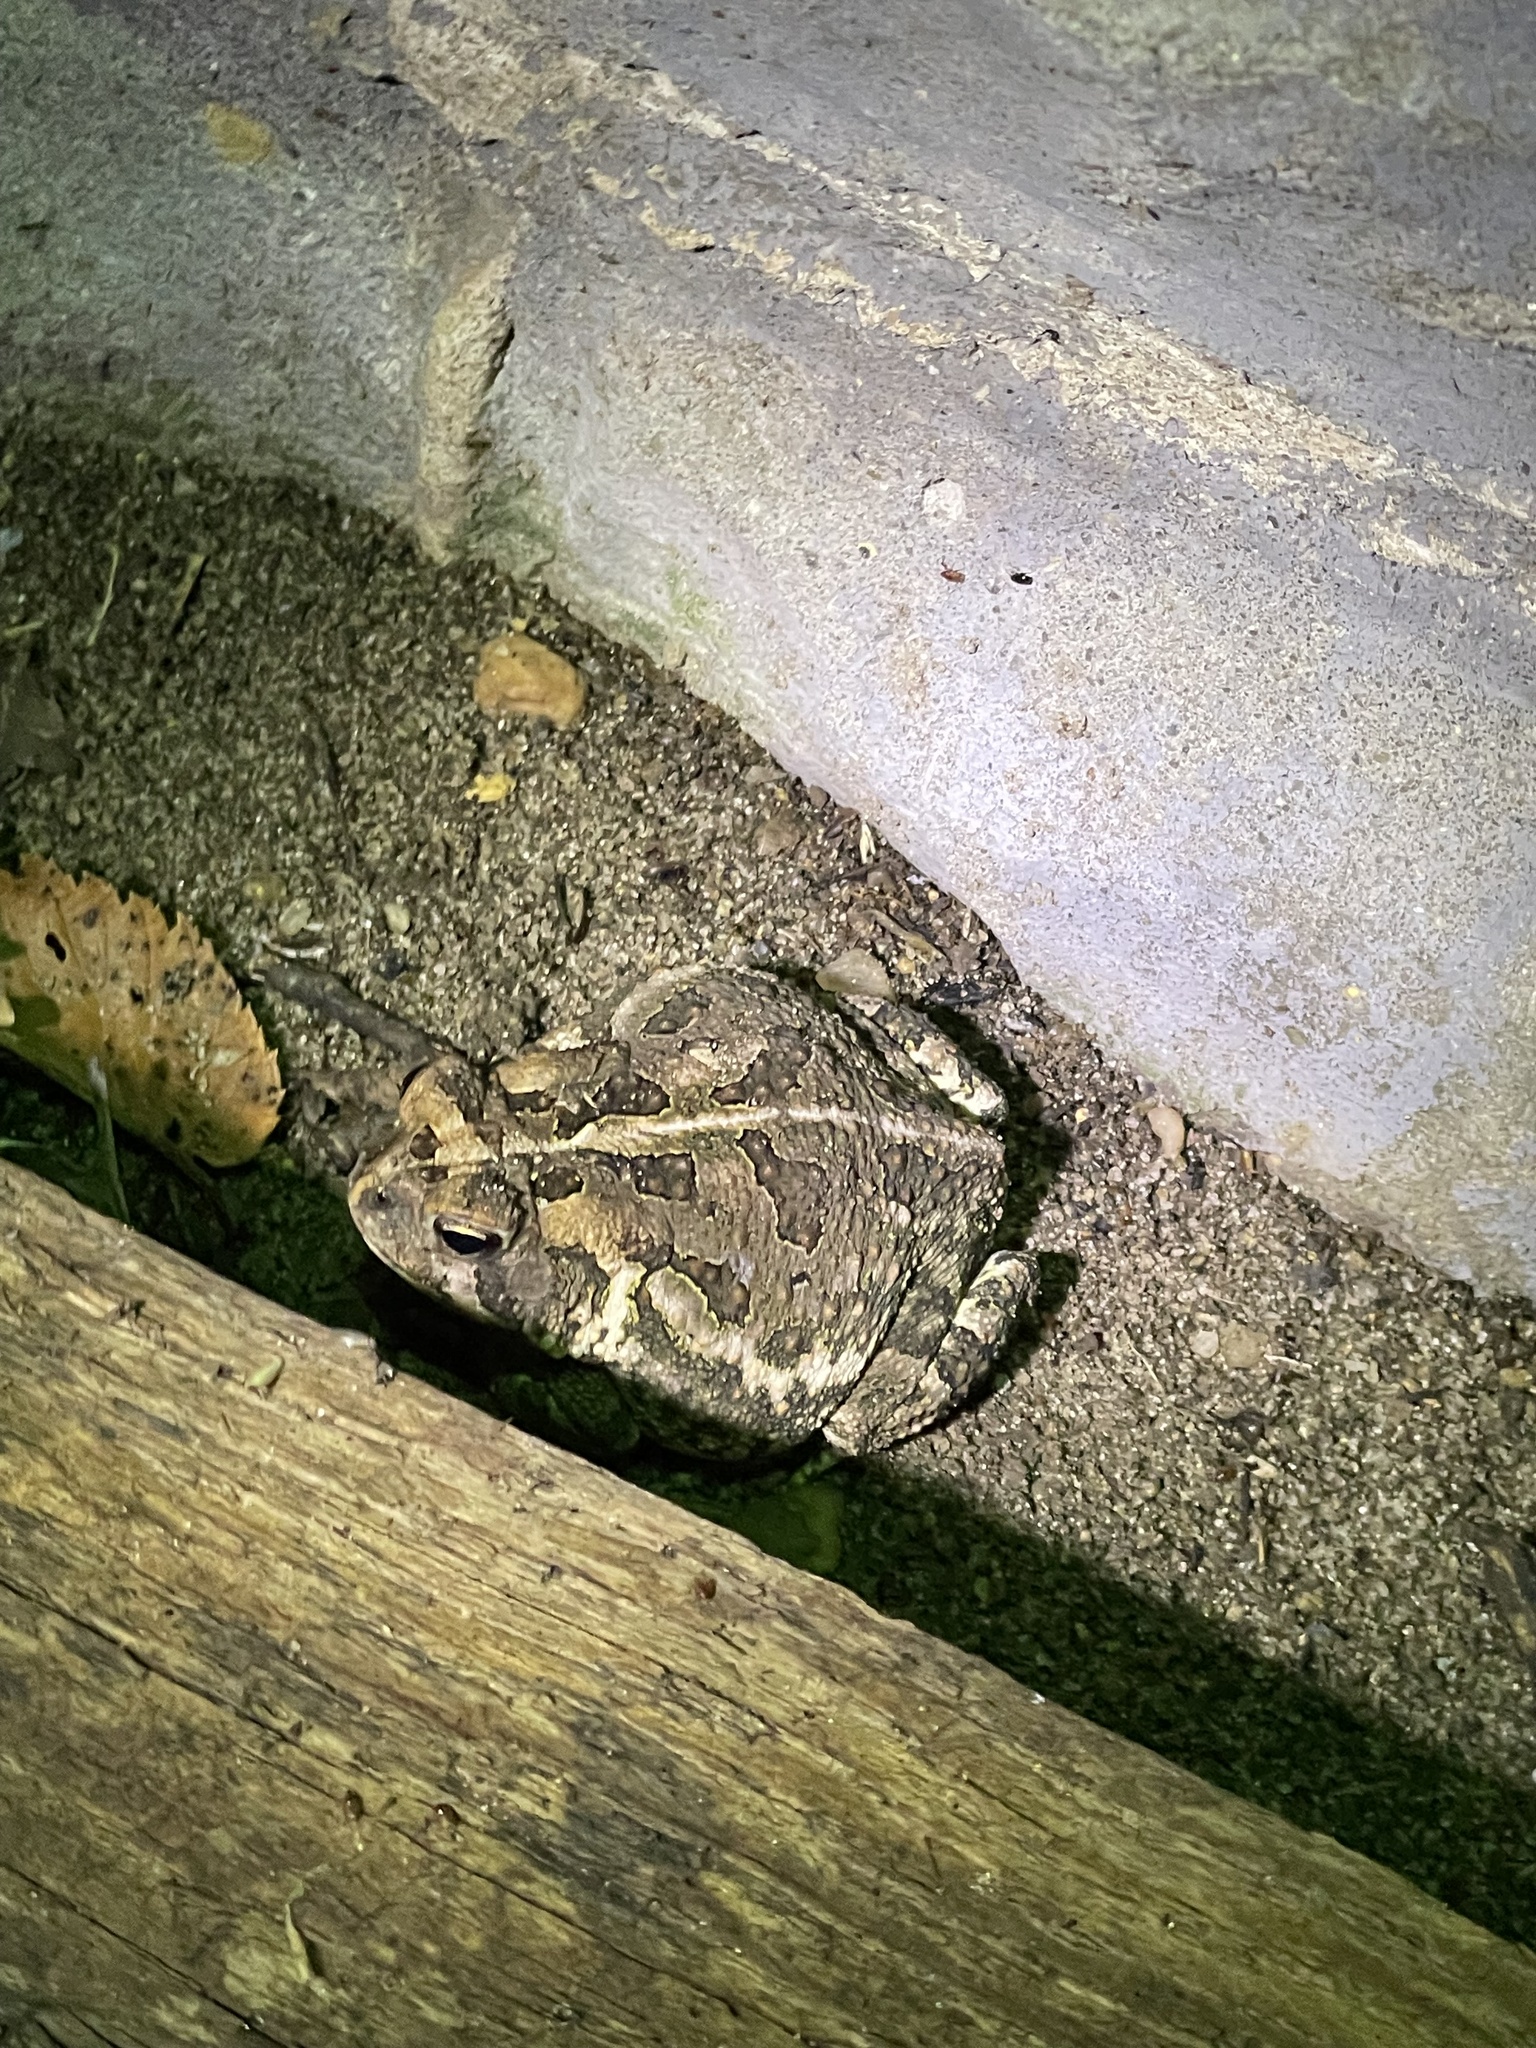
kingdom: Animalia
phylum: Chordata
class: Amphibia
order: Anura
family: Bufonidae
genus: Anaxyrus
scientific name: Anaxyrus fowleri
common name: Fowler's toad
